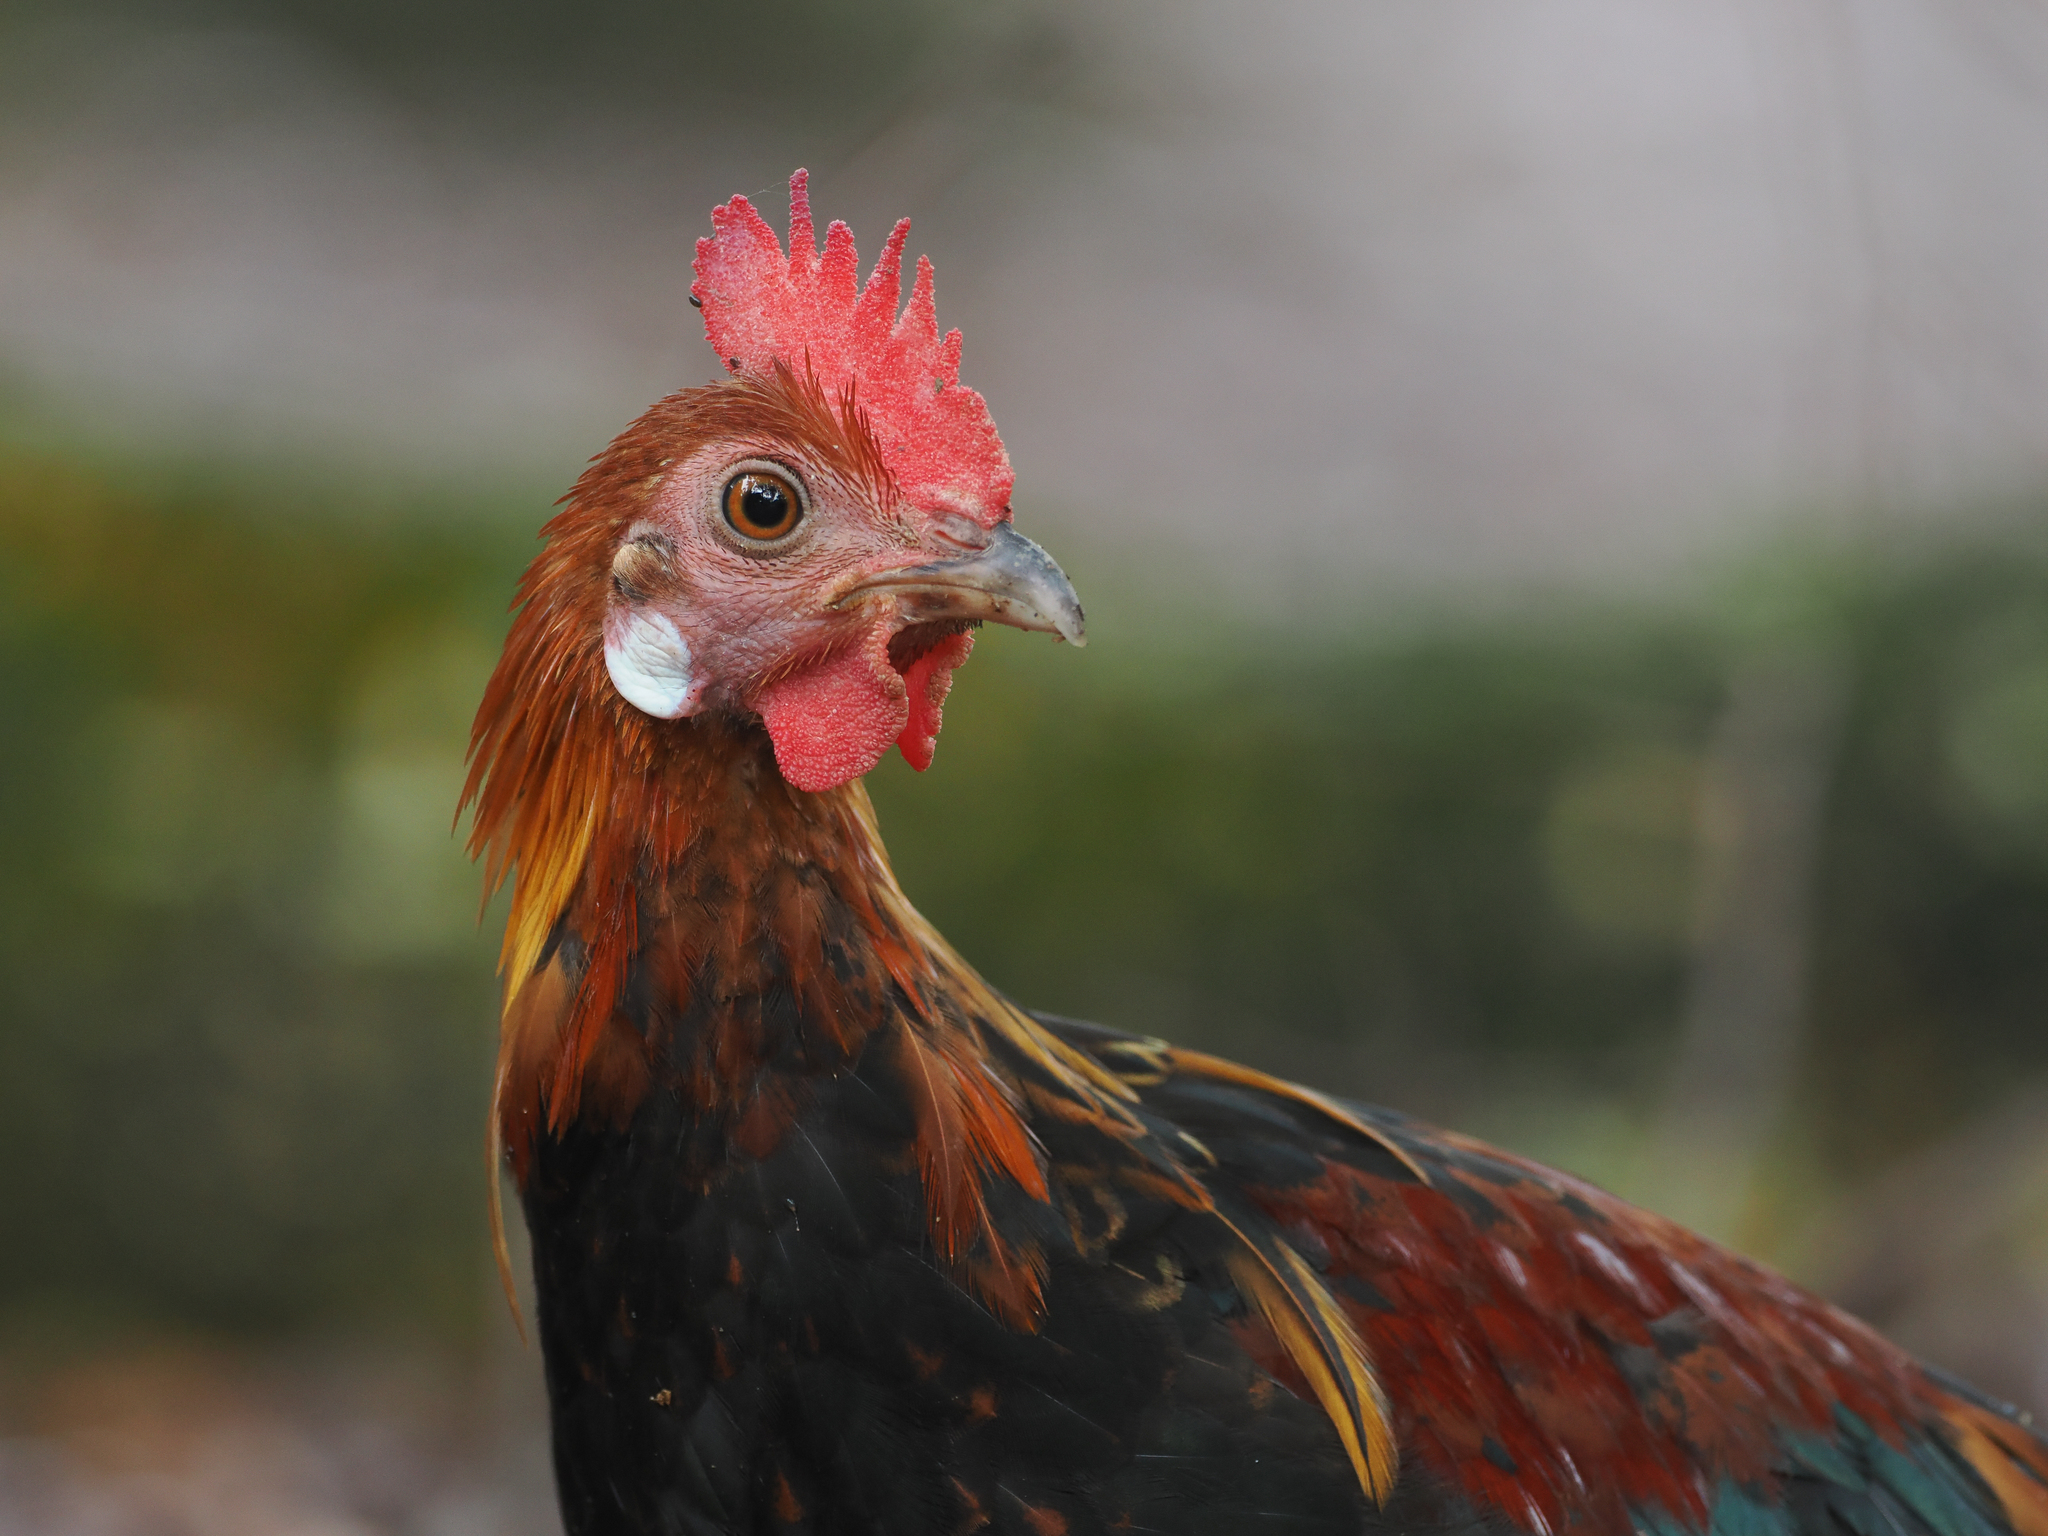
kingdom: Animalia
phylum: Chordata
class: Aves
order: Galliformes
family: Phasianidae
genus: Gallus
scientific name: Gallus gallus
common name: Red junglefowl
